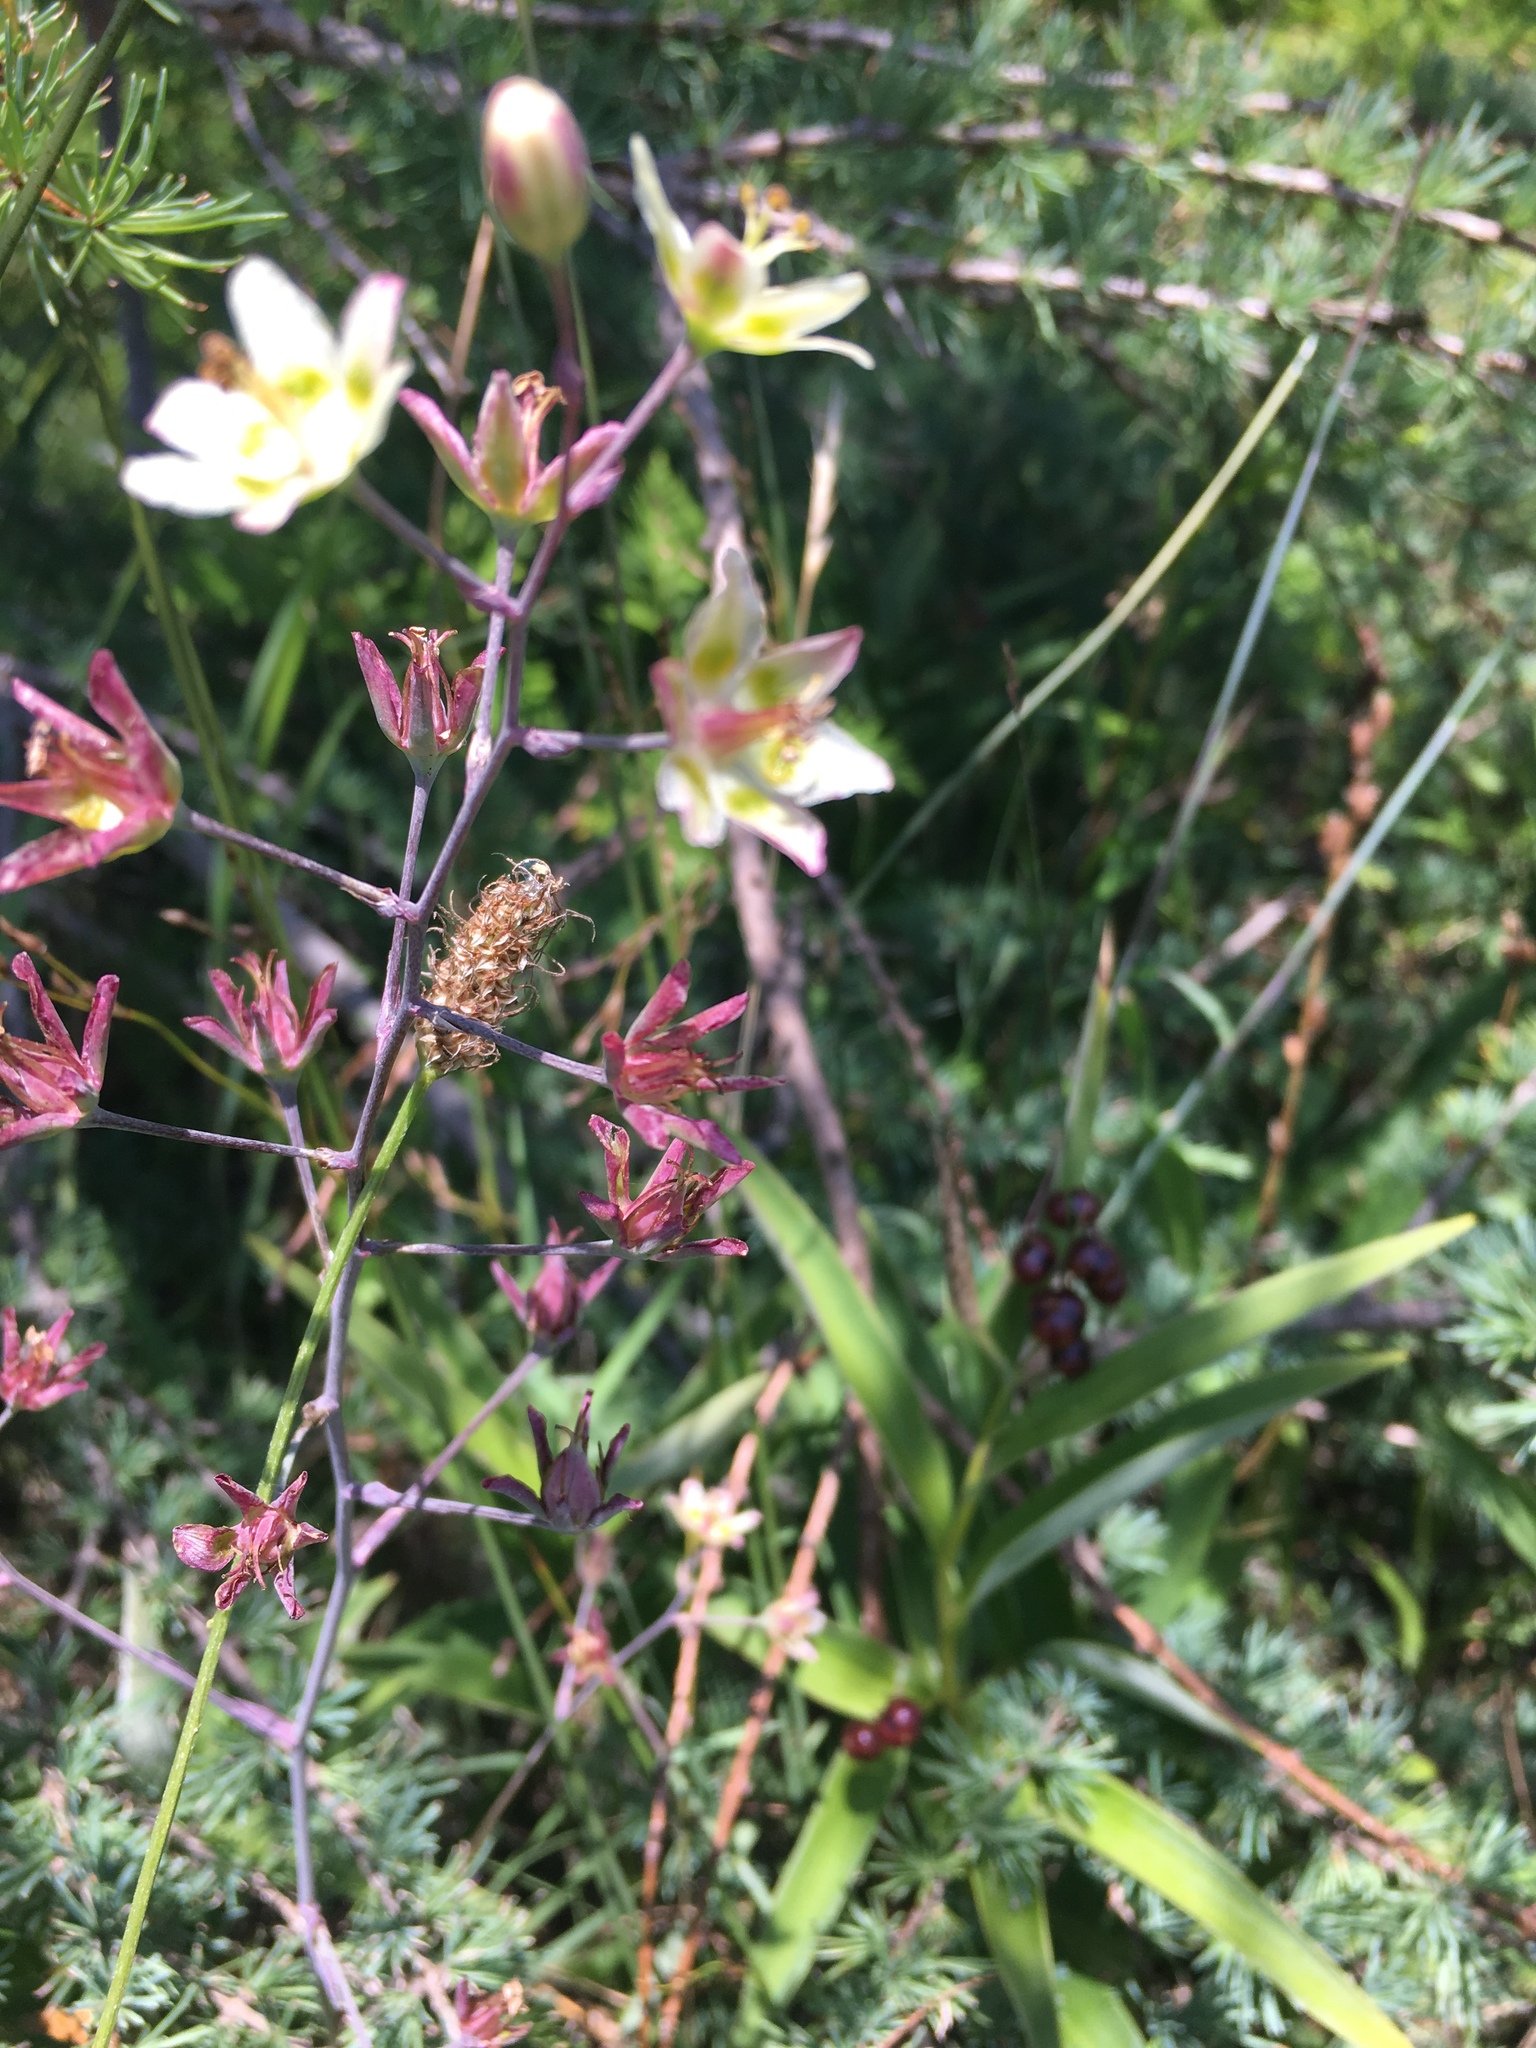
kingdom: Plantae
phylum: Tracheophyta
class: Liliopsida
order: Liliales
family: Melanthiaceae
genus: Anticlea
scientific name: Anticlea elegans
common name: Mountain death camas
